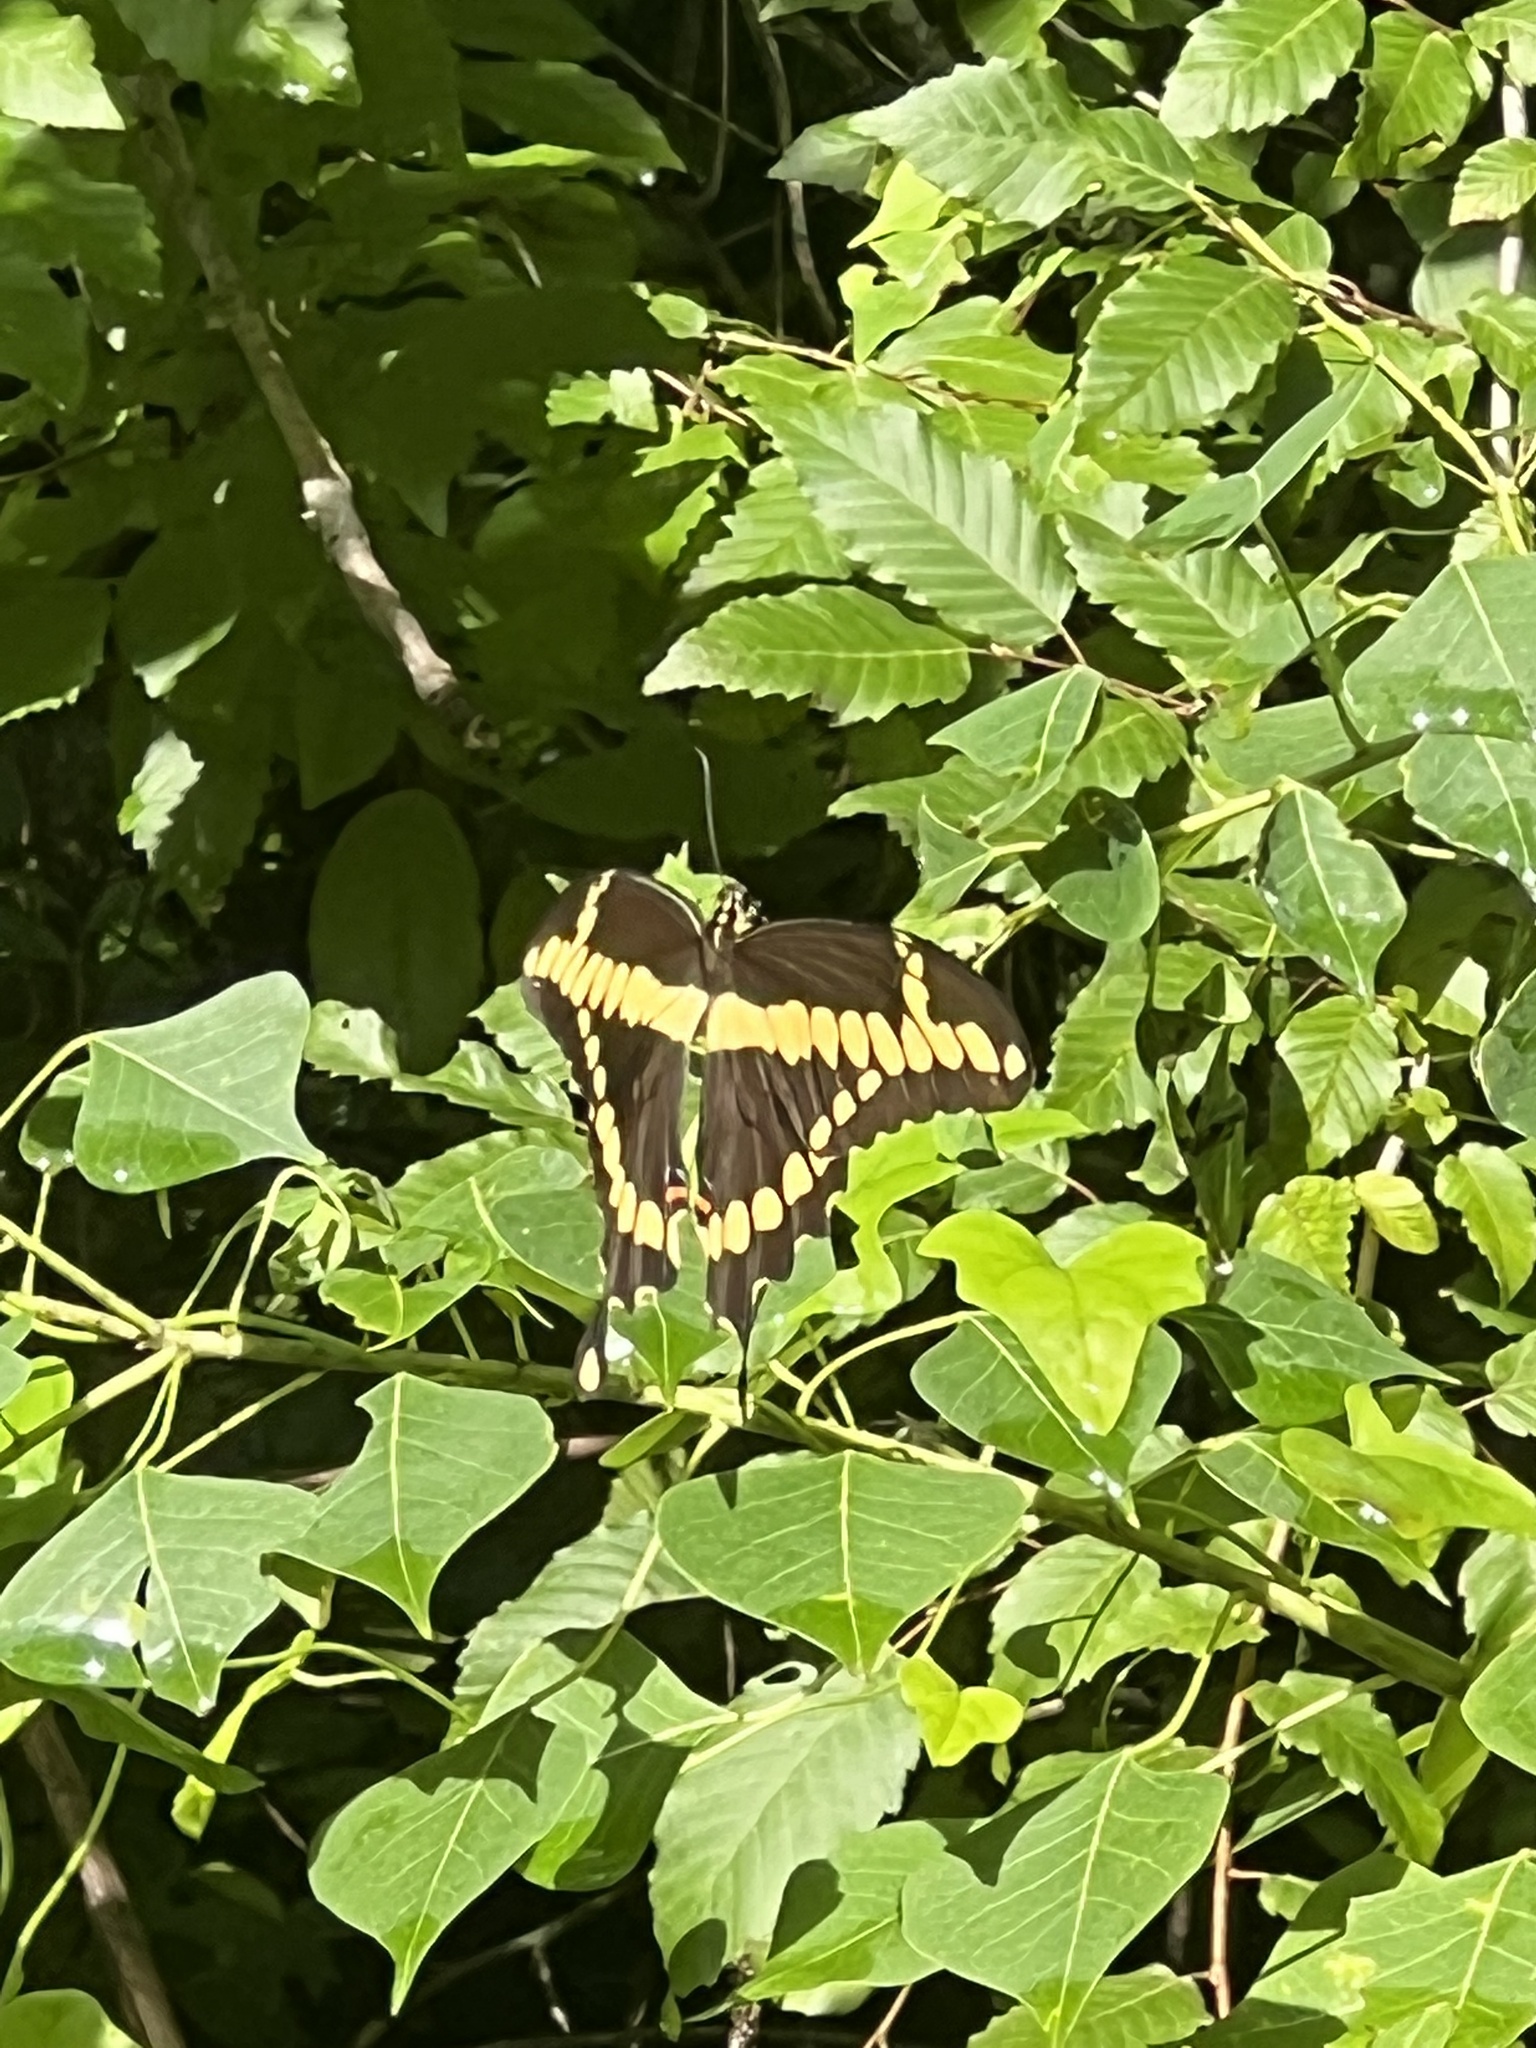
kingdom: Animalia
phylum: Arthropoda
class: Insecta
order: Lepidoptera
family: Papilionidae
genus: Papilio
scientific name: Papilio cresphontes
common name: Giant swallowtail
